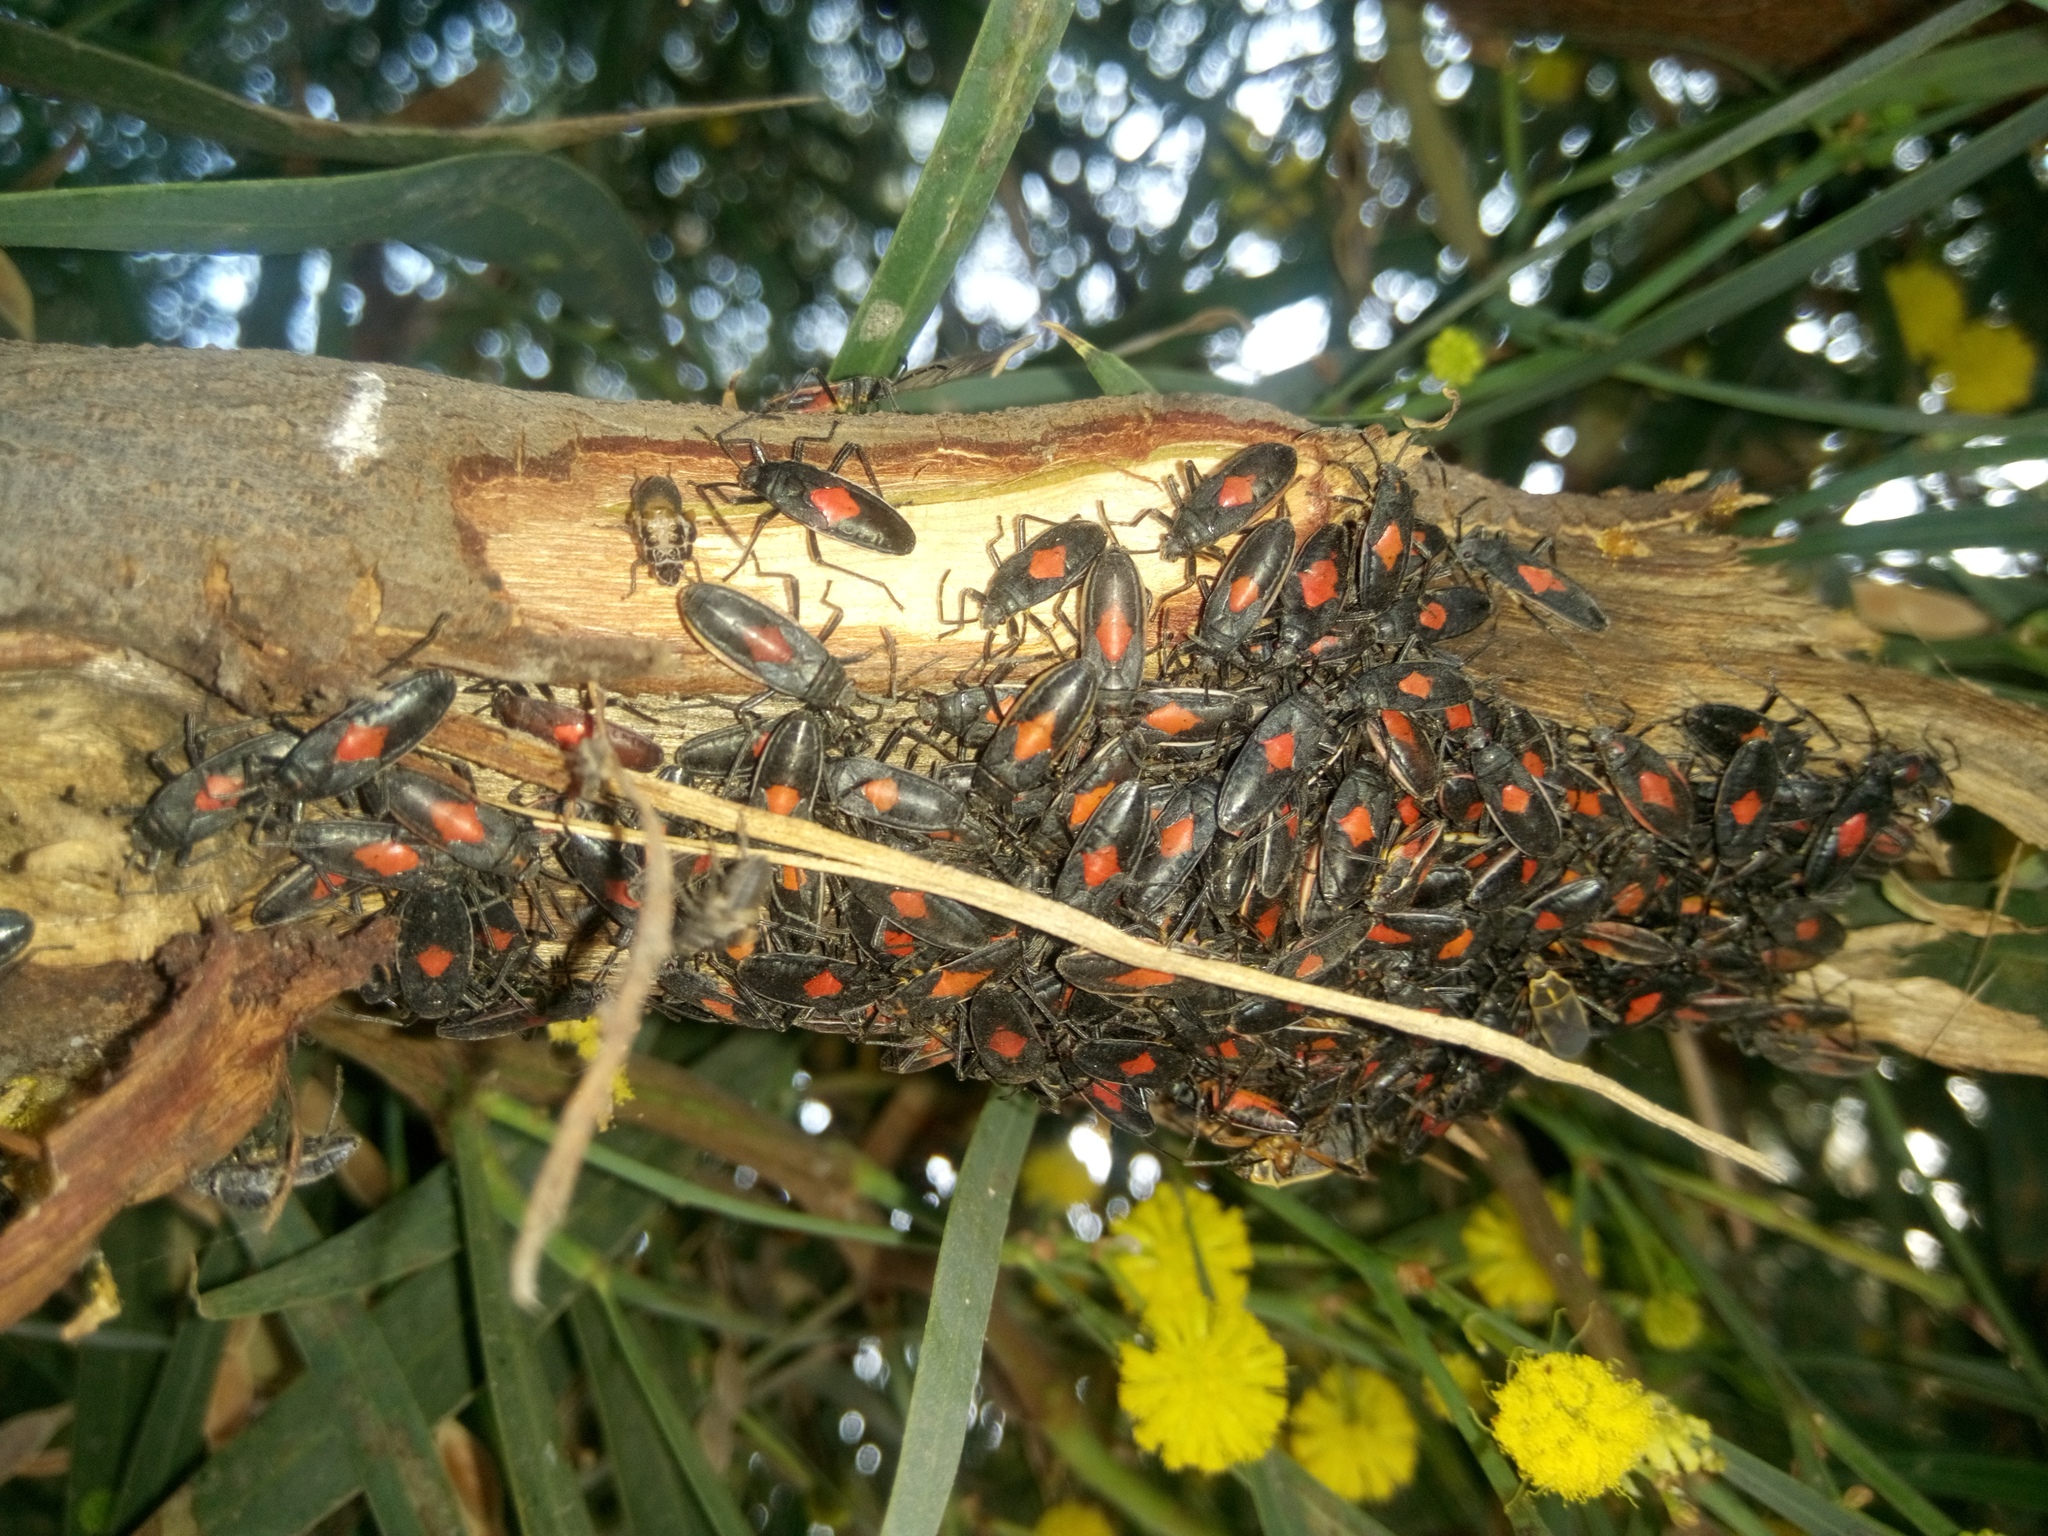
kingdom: Animalia
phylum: Arthropoda
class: Insecta
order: Hemiptera
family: Largidae
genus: Stenomacra
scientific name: Stenomacra marginella
